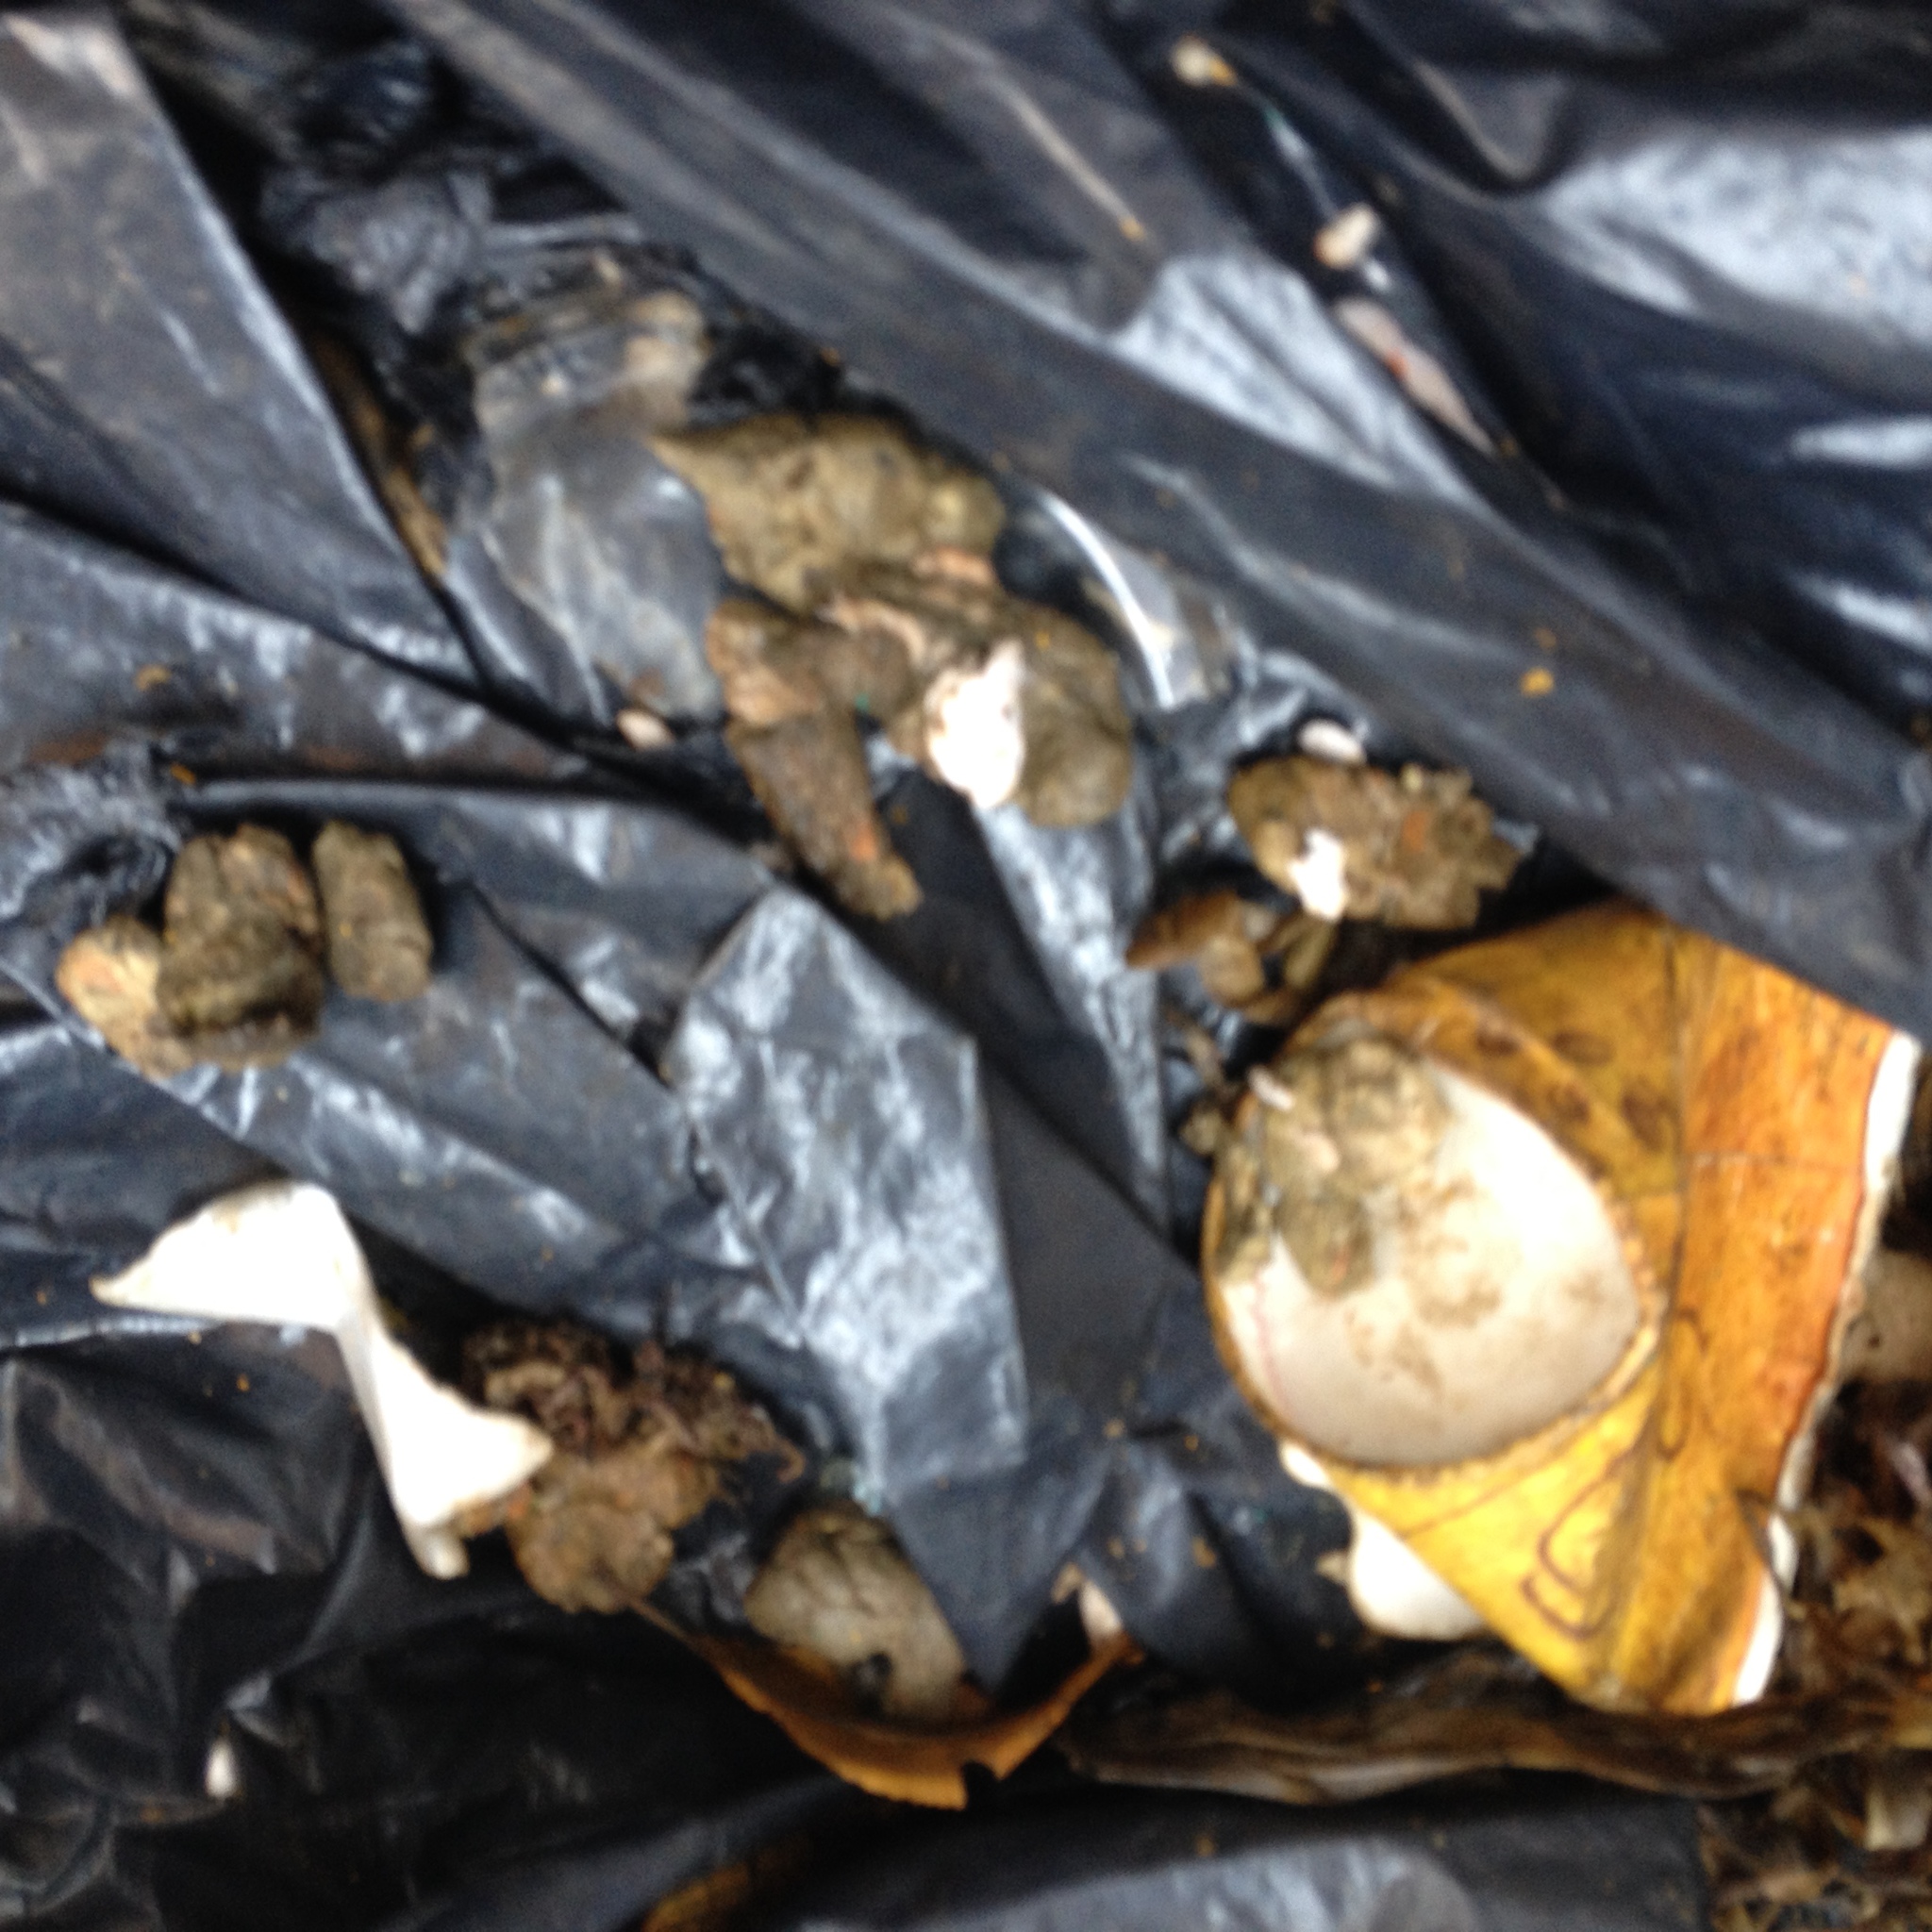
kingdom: Animalia
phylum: Chordata
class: Mammalia
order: Didelphimorphia
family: Didelphidae
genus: Didelphis
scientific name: Didelphis virginiana
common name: Virginia opossum
